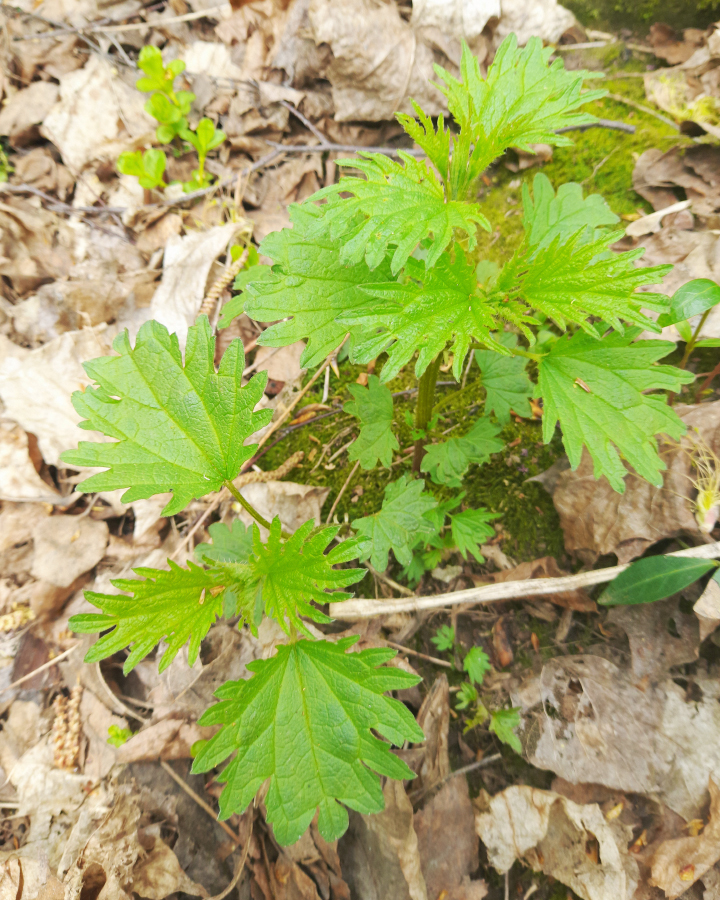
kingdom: Plantae
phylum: Tracheophyta
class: Magnoliopsida
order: Rosales
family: Urticaceae
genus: Urtica
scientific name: Urtica dioica
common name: Common nettle
